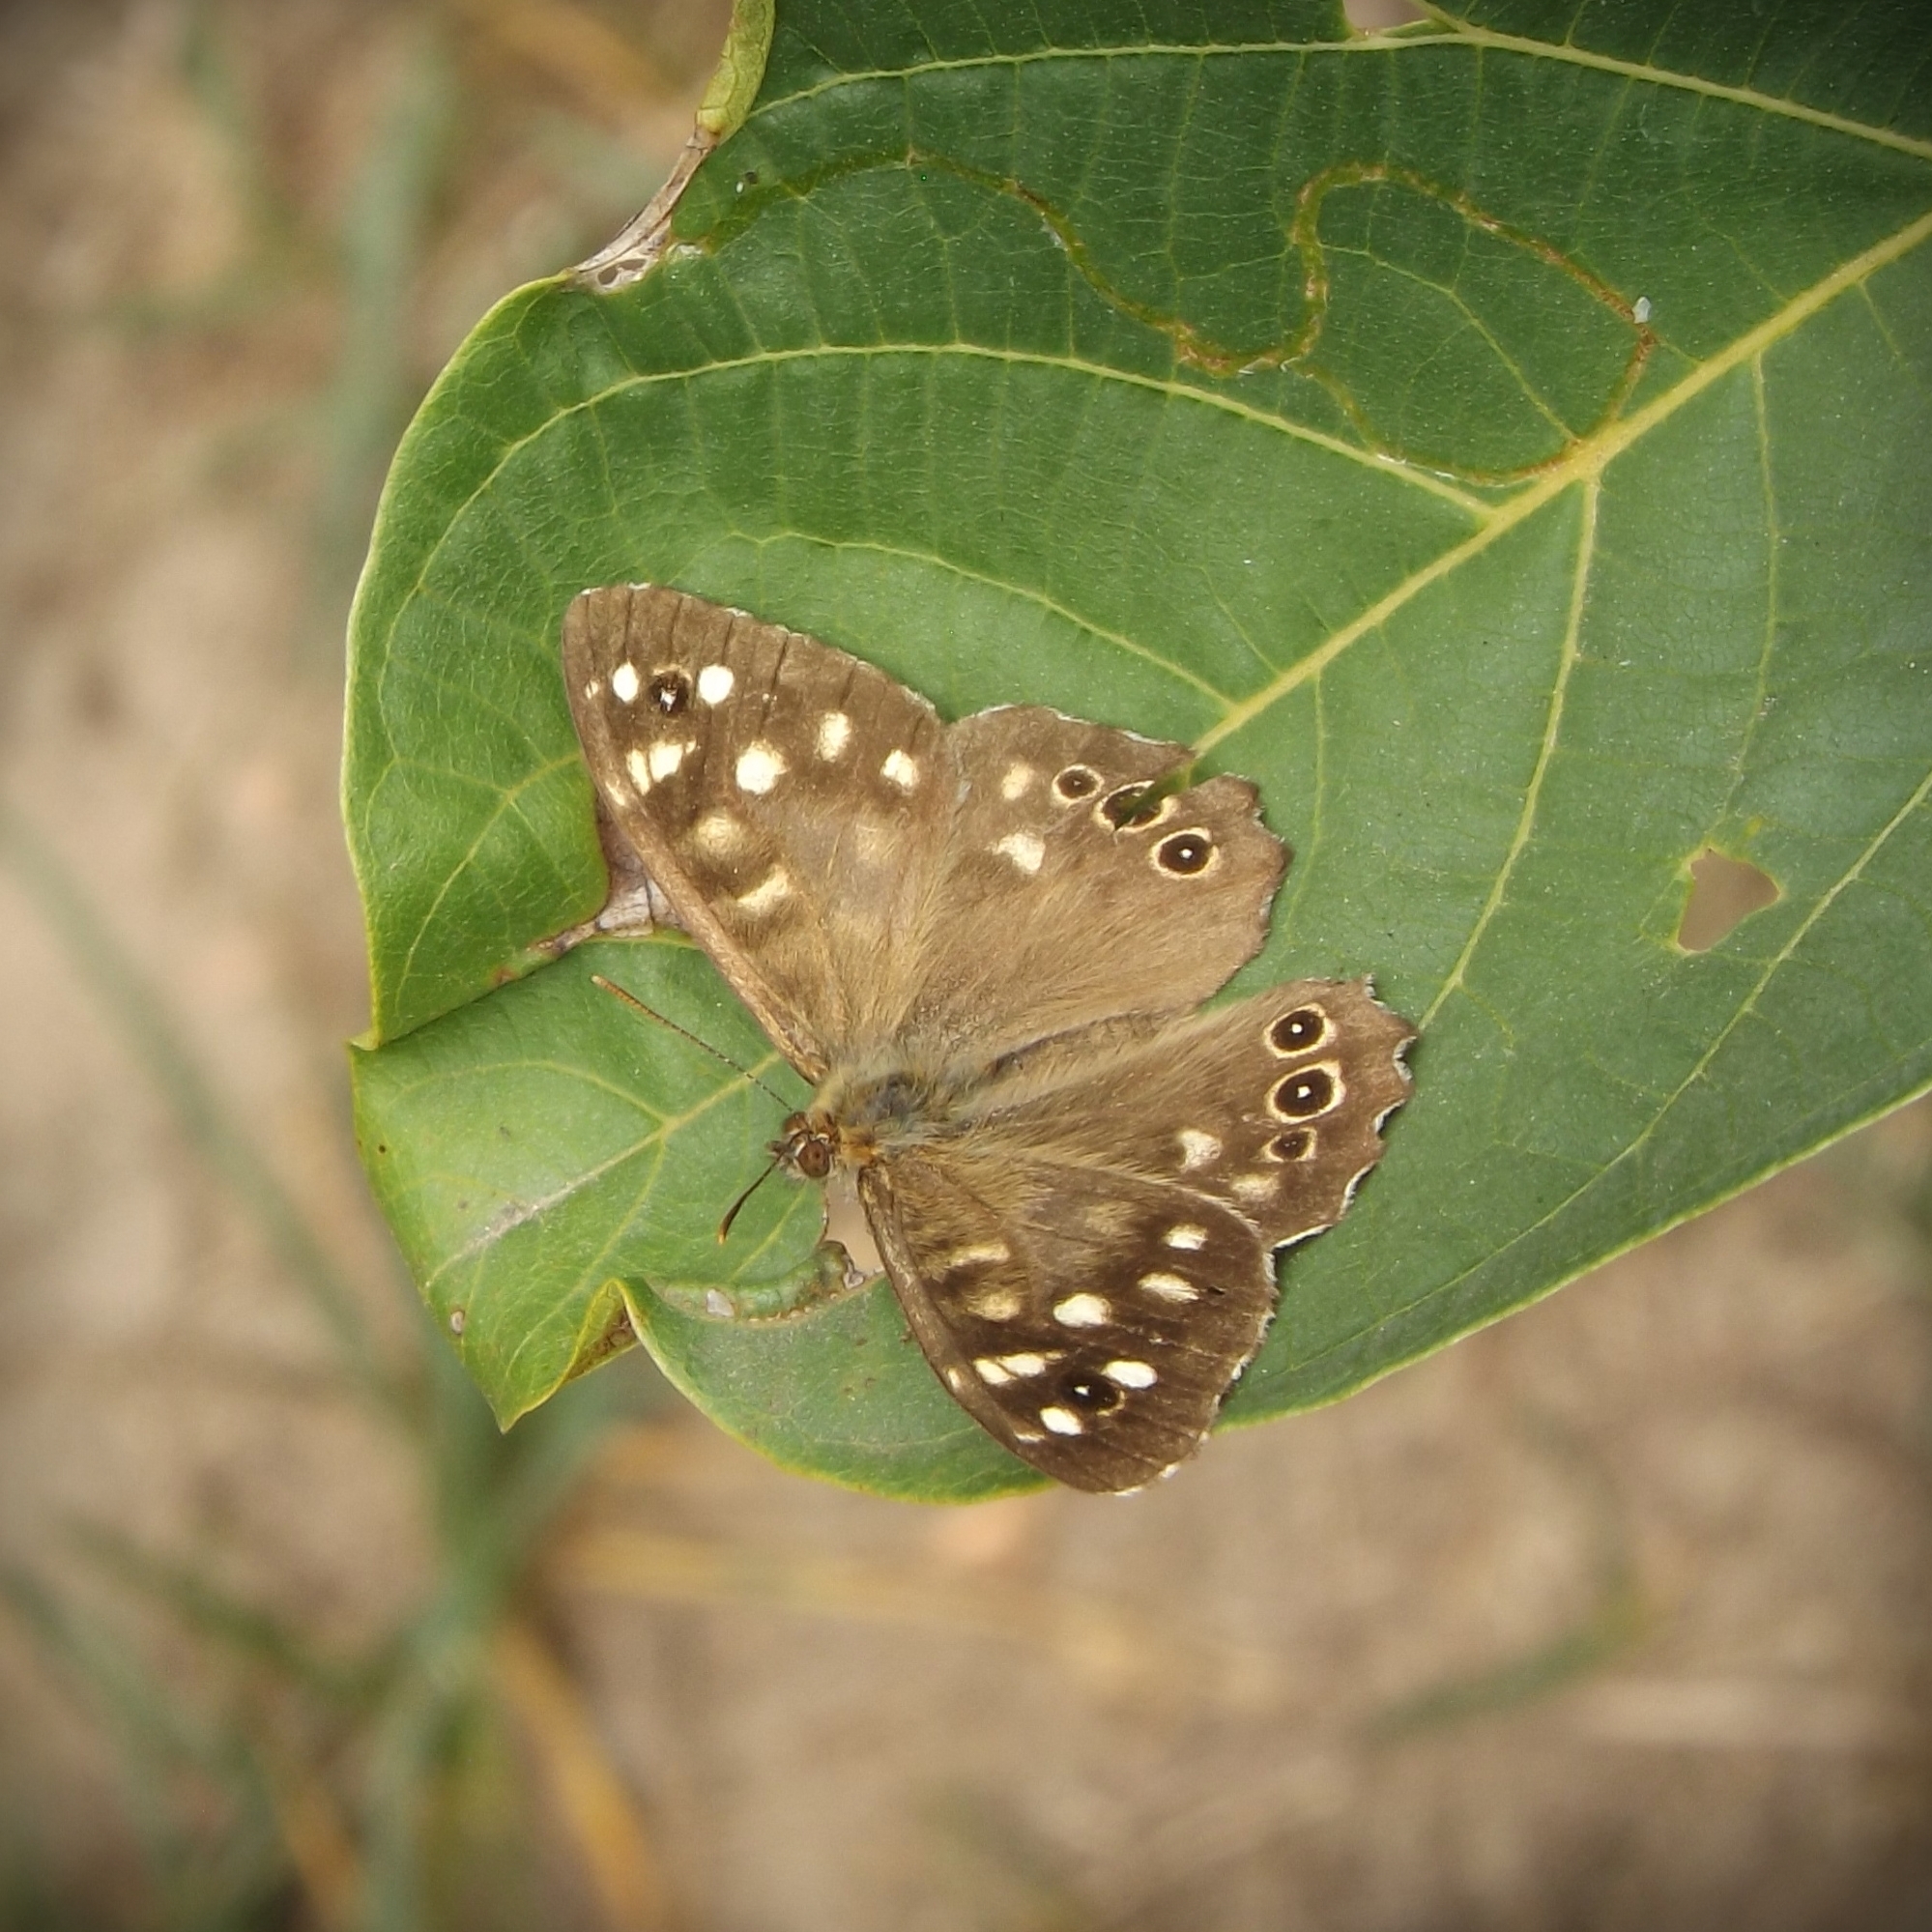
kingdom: Animalia
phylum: Arthropoda
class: Insecta
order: Lepidoptera
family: Nymphalidae
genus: Pararge
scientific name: Pararge aegeria
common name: Speckled wood
